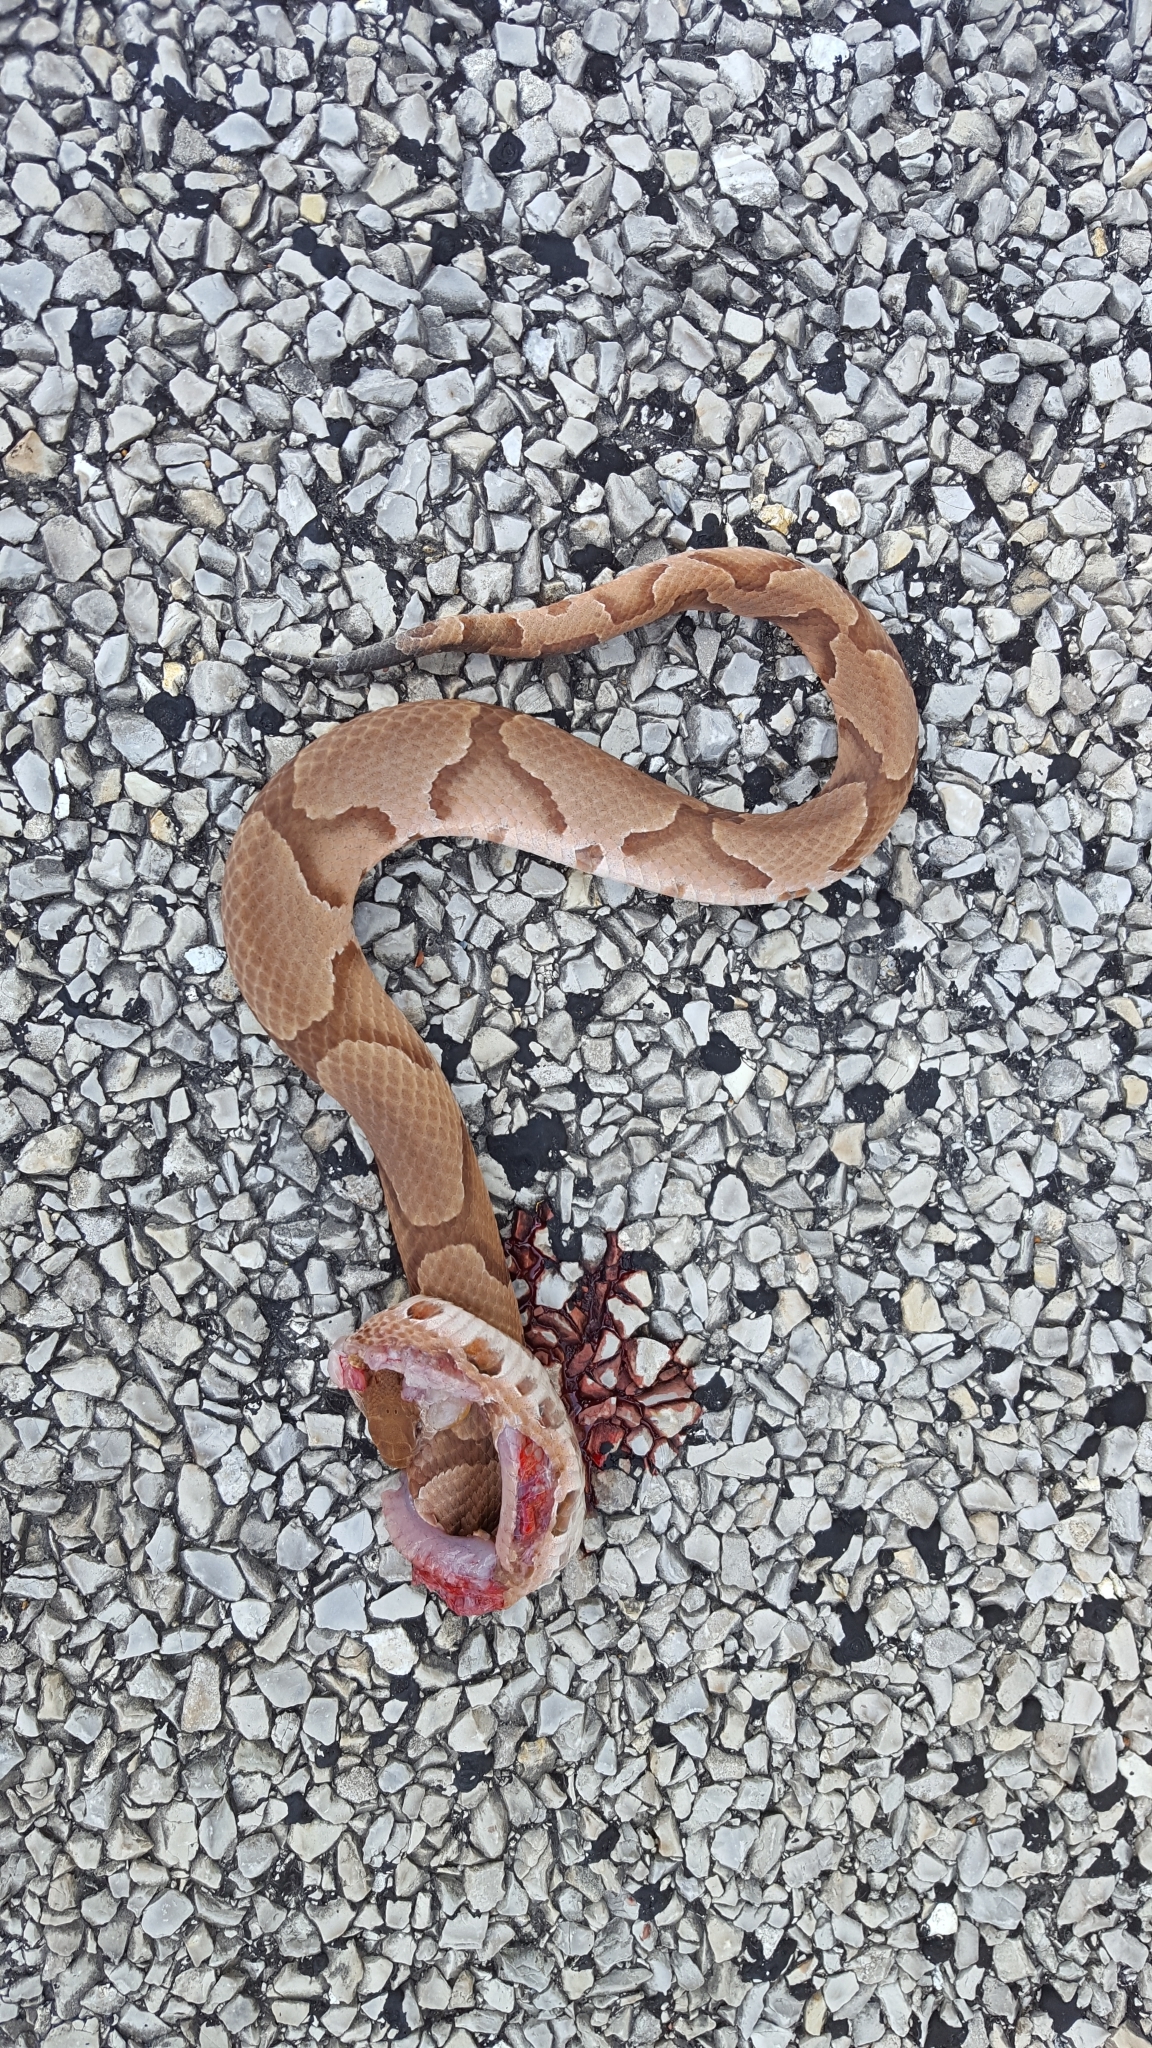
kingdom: Animalia
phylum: Chordata
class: Squamata
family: Viperidae
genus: Agkistrodon
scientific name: Agkistrodon contortrix
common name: Northern copperhead
